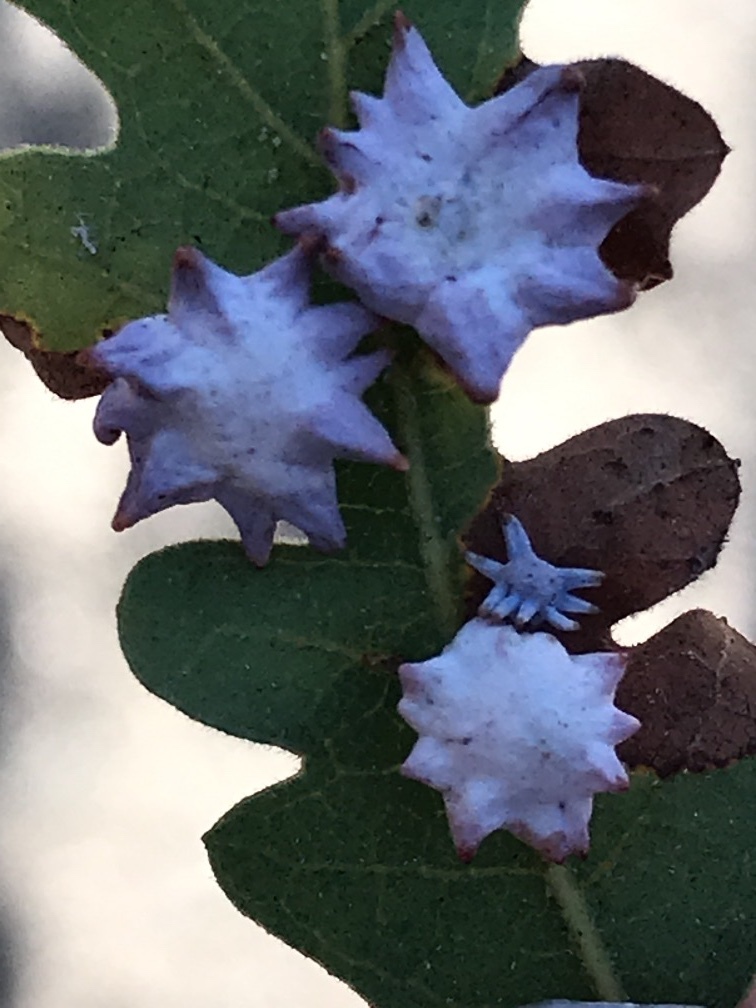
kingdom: Animalia
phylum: Arthropoda
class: Insecta
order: Hymenoptera
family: Cynipidae
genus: Cynips
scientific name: Cynips douglasi
